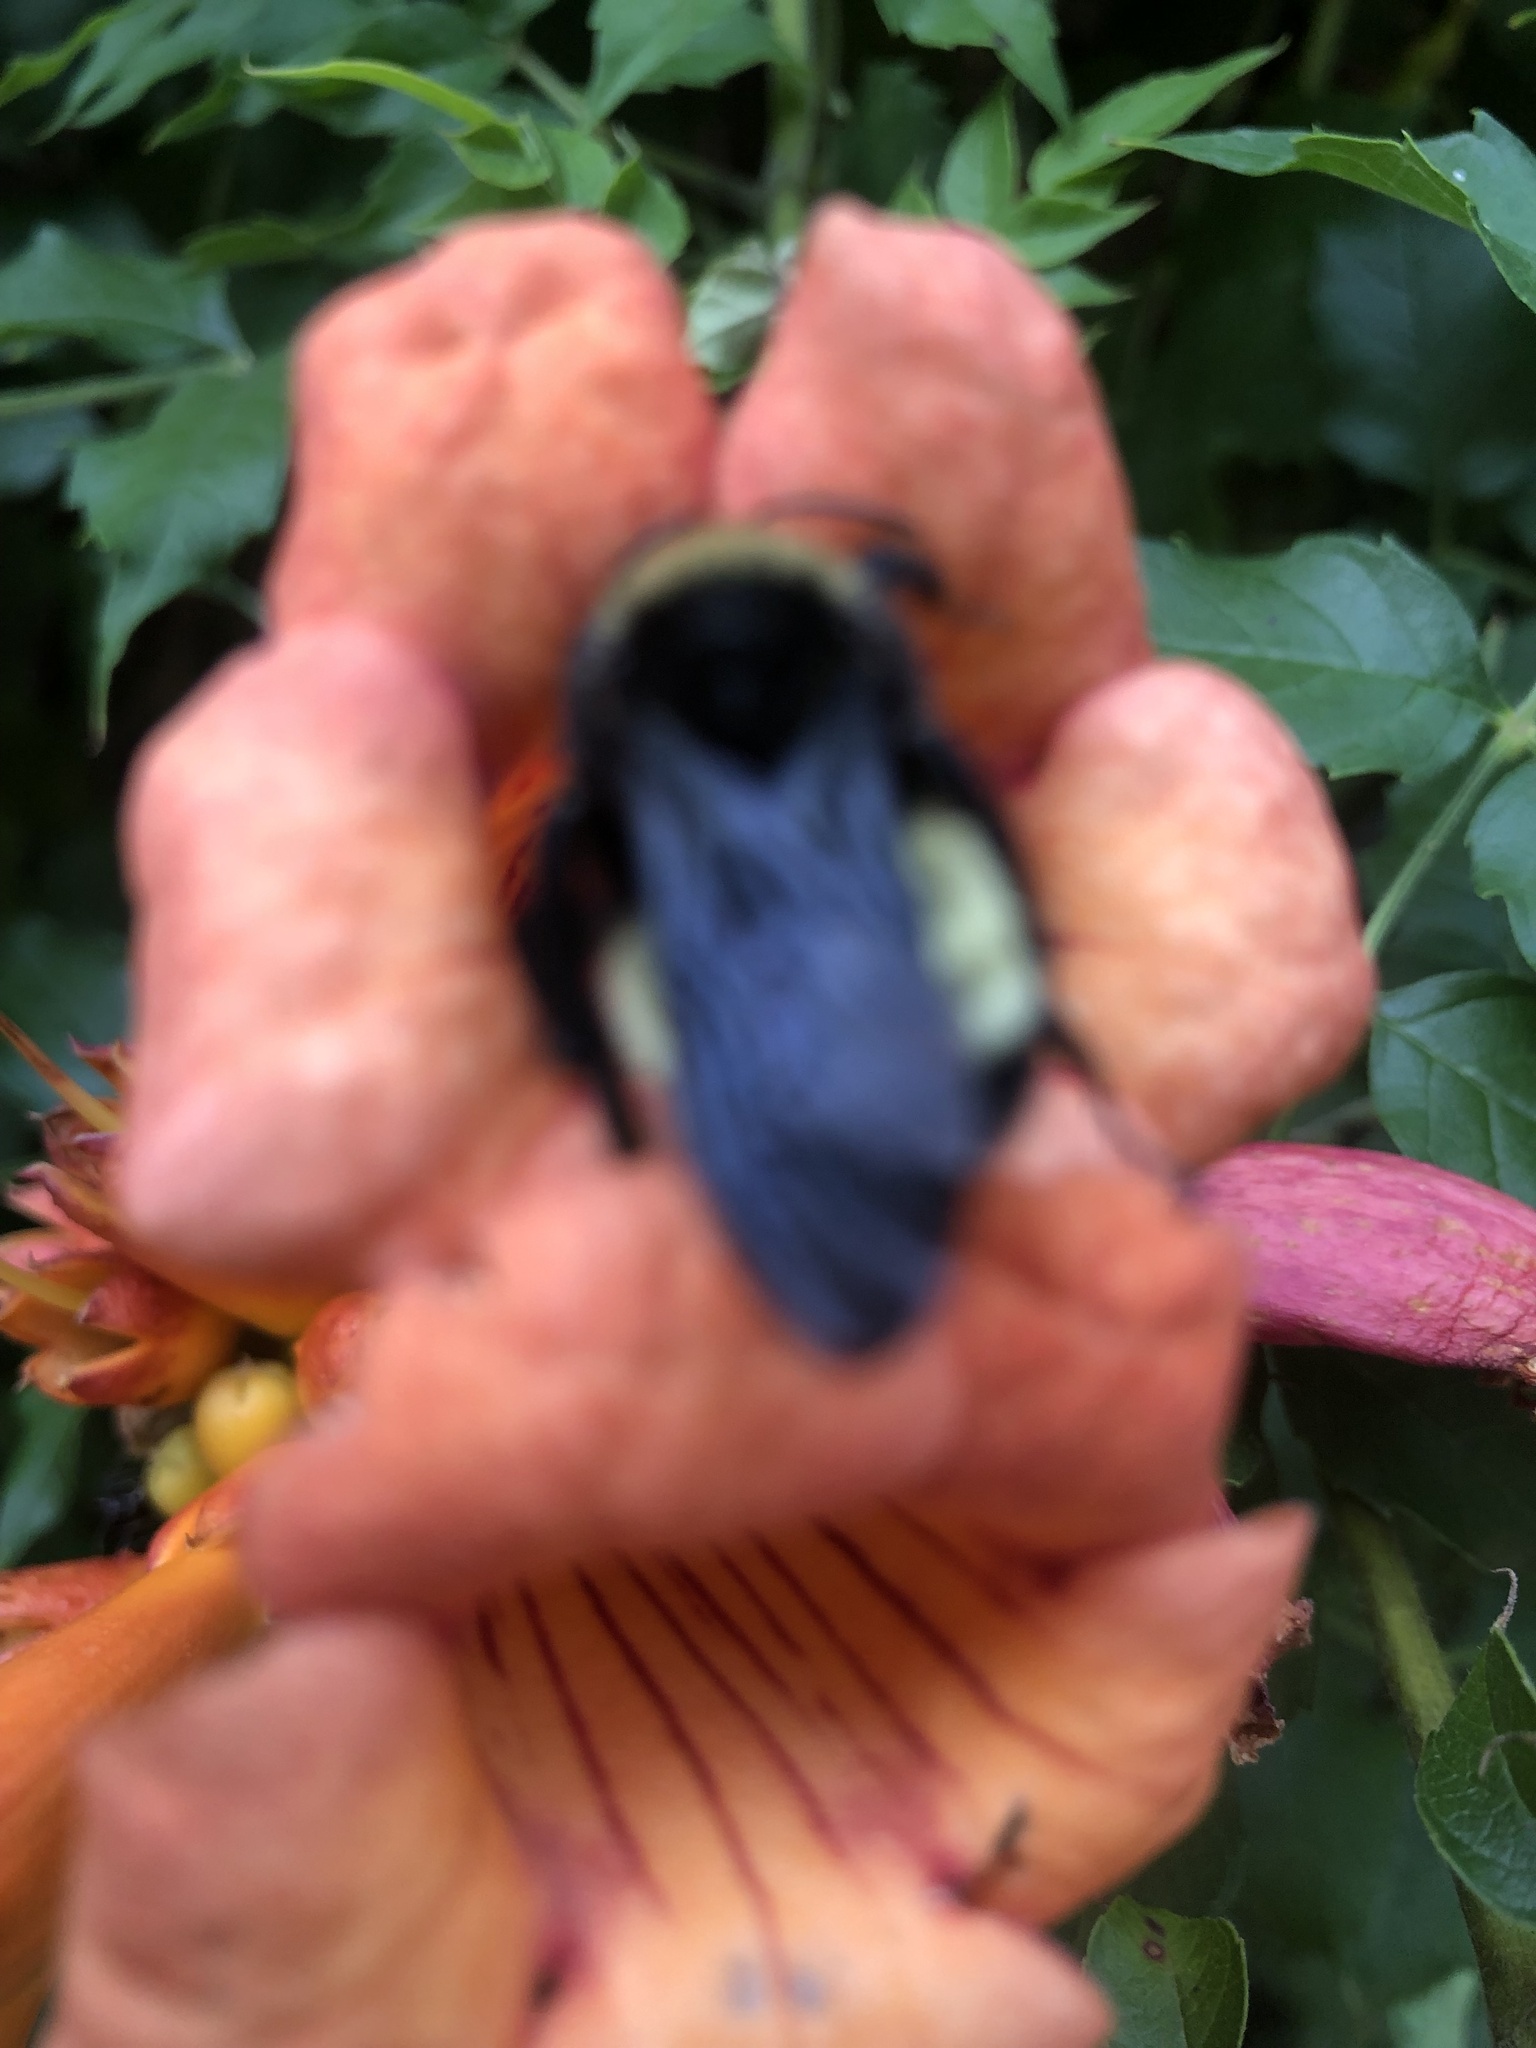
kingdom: Animalia
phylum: Arthropoda
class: Insecta
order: Hymenoptera
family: Apidae
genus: Bombus
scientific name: Bombus pensylvanicus
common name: Bumble bee
